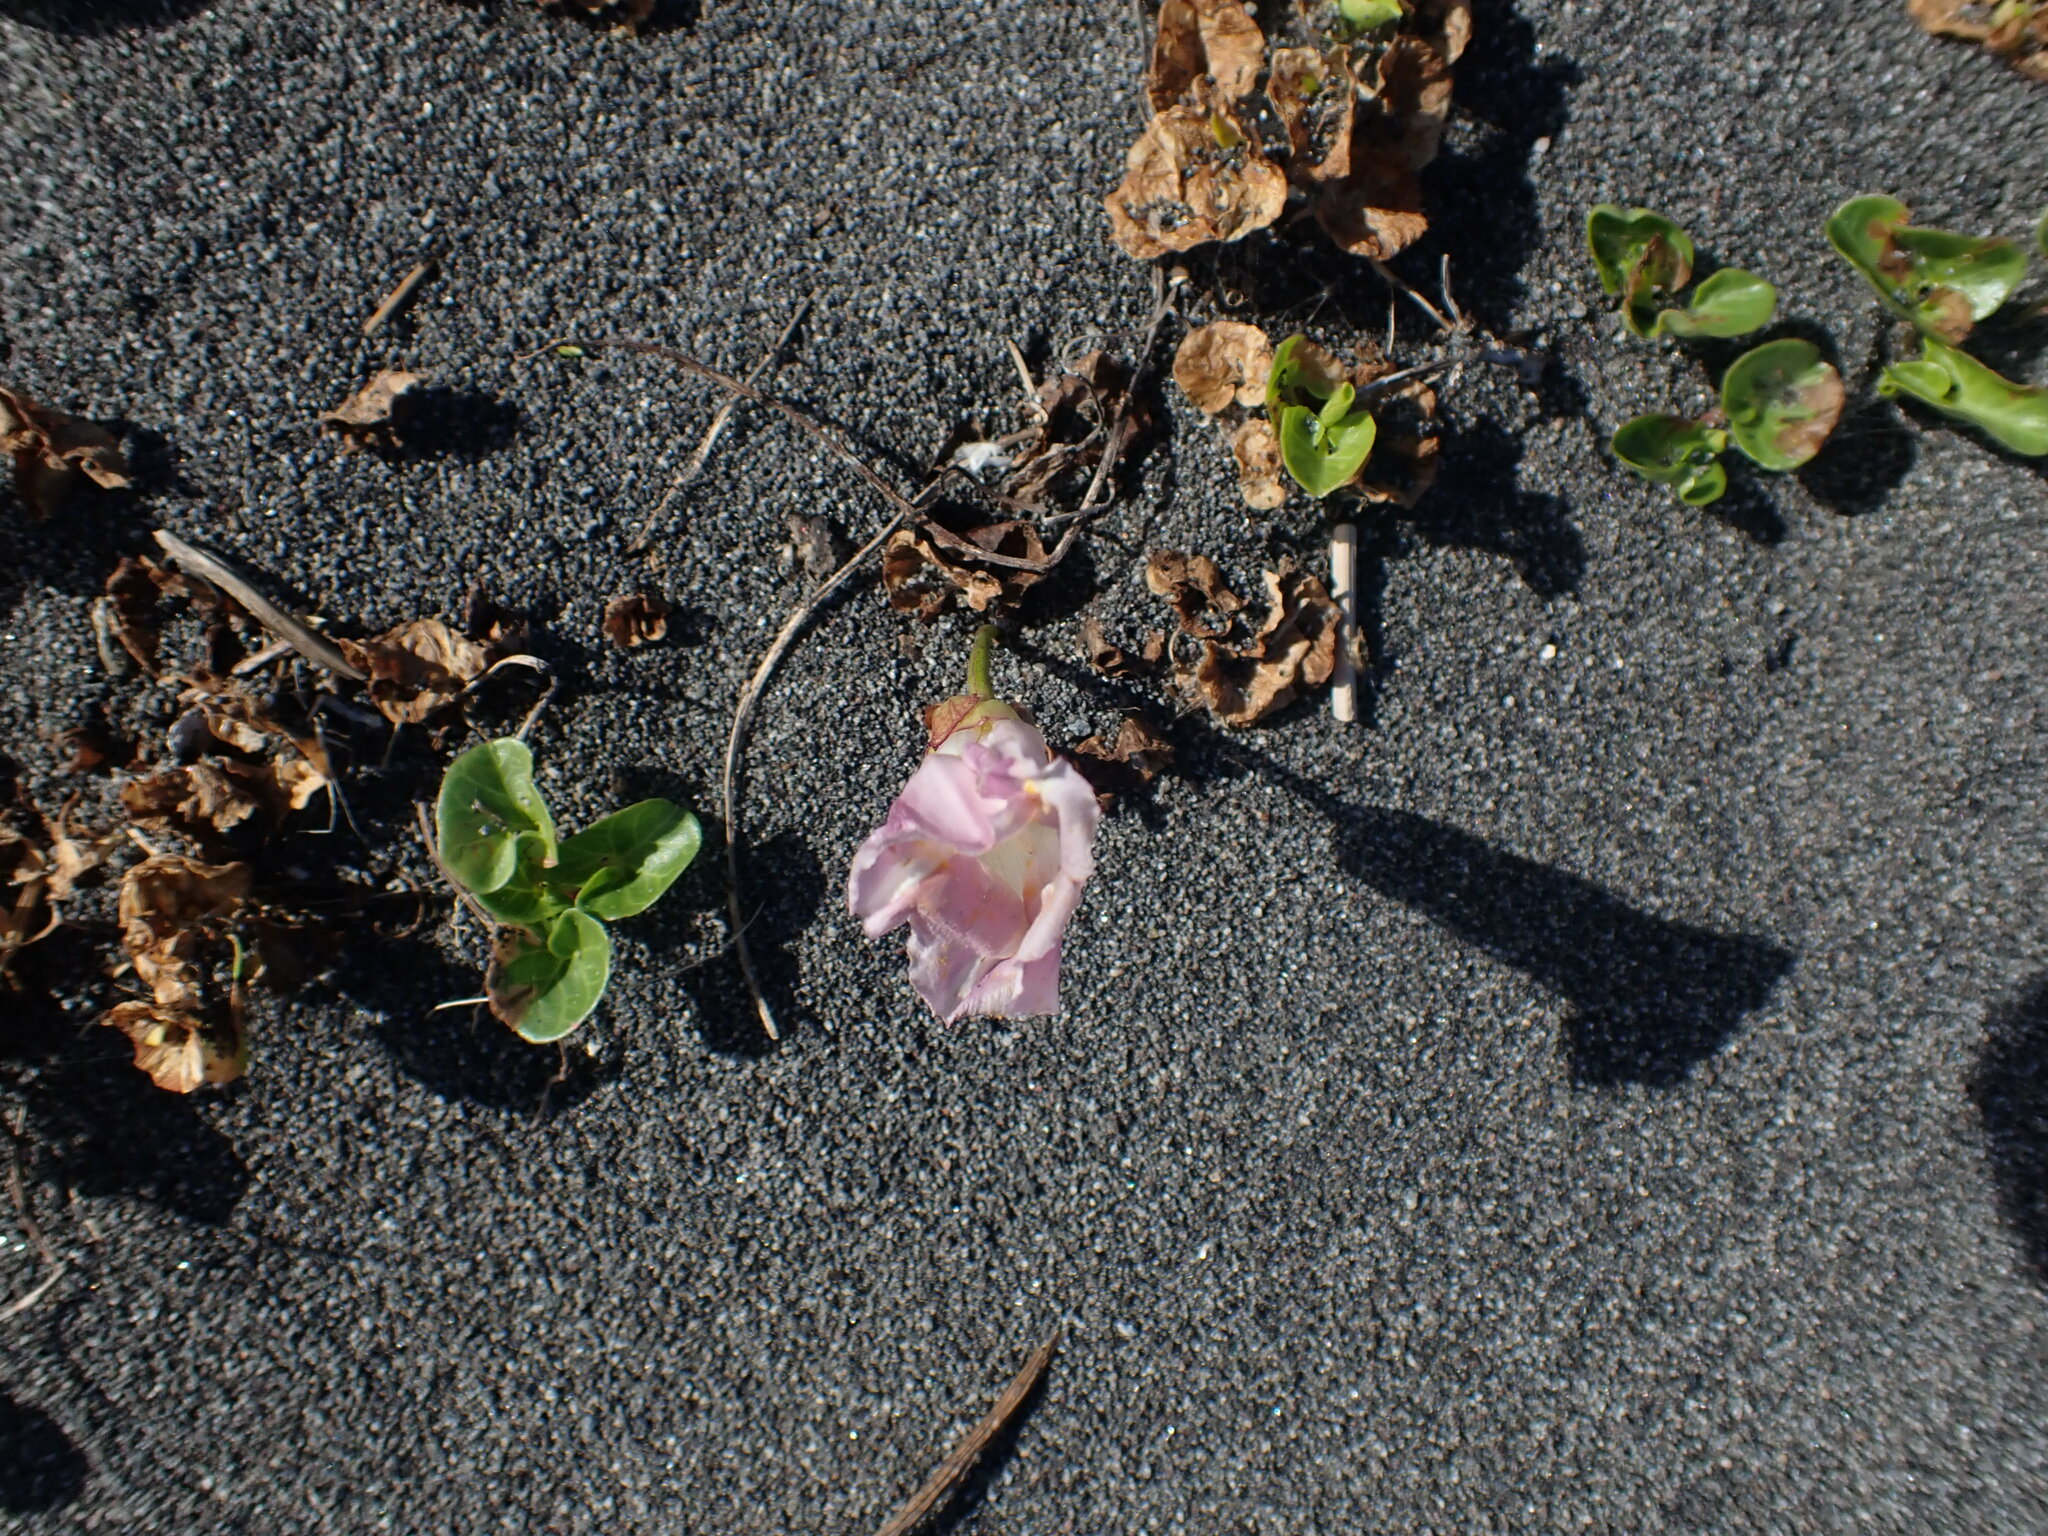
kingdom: Plantae
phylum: Tracheophyta
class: Magnoliopsida
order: Solanales
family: Convolvulaceae
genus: Calystegia
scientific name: Calystegia soldanella
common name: Sea bindweed
